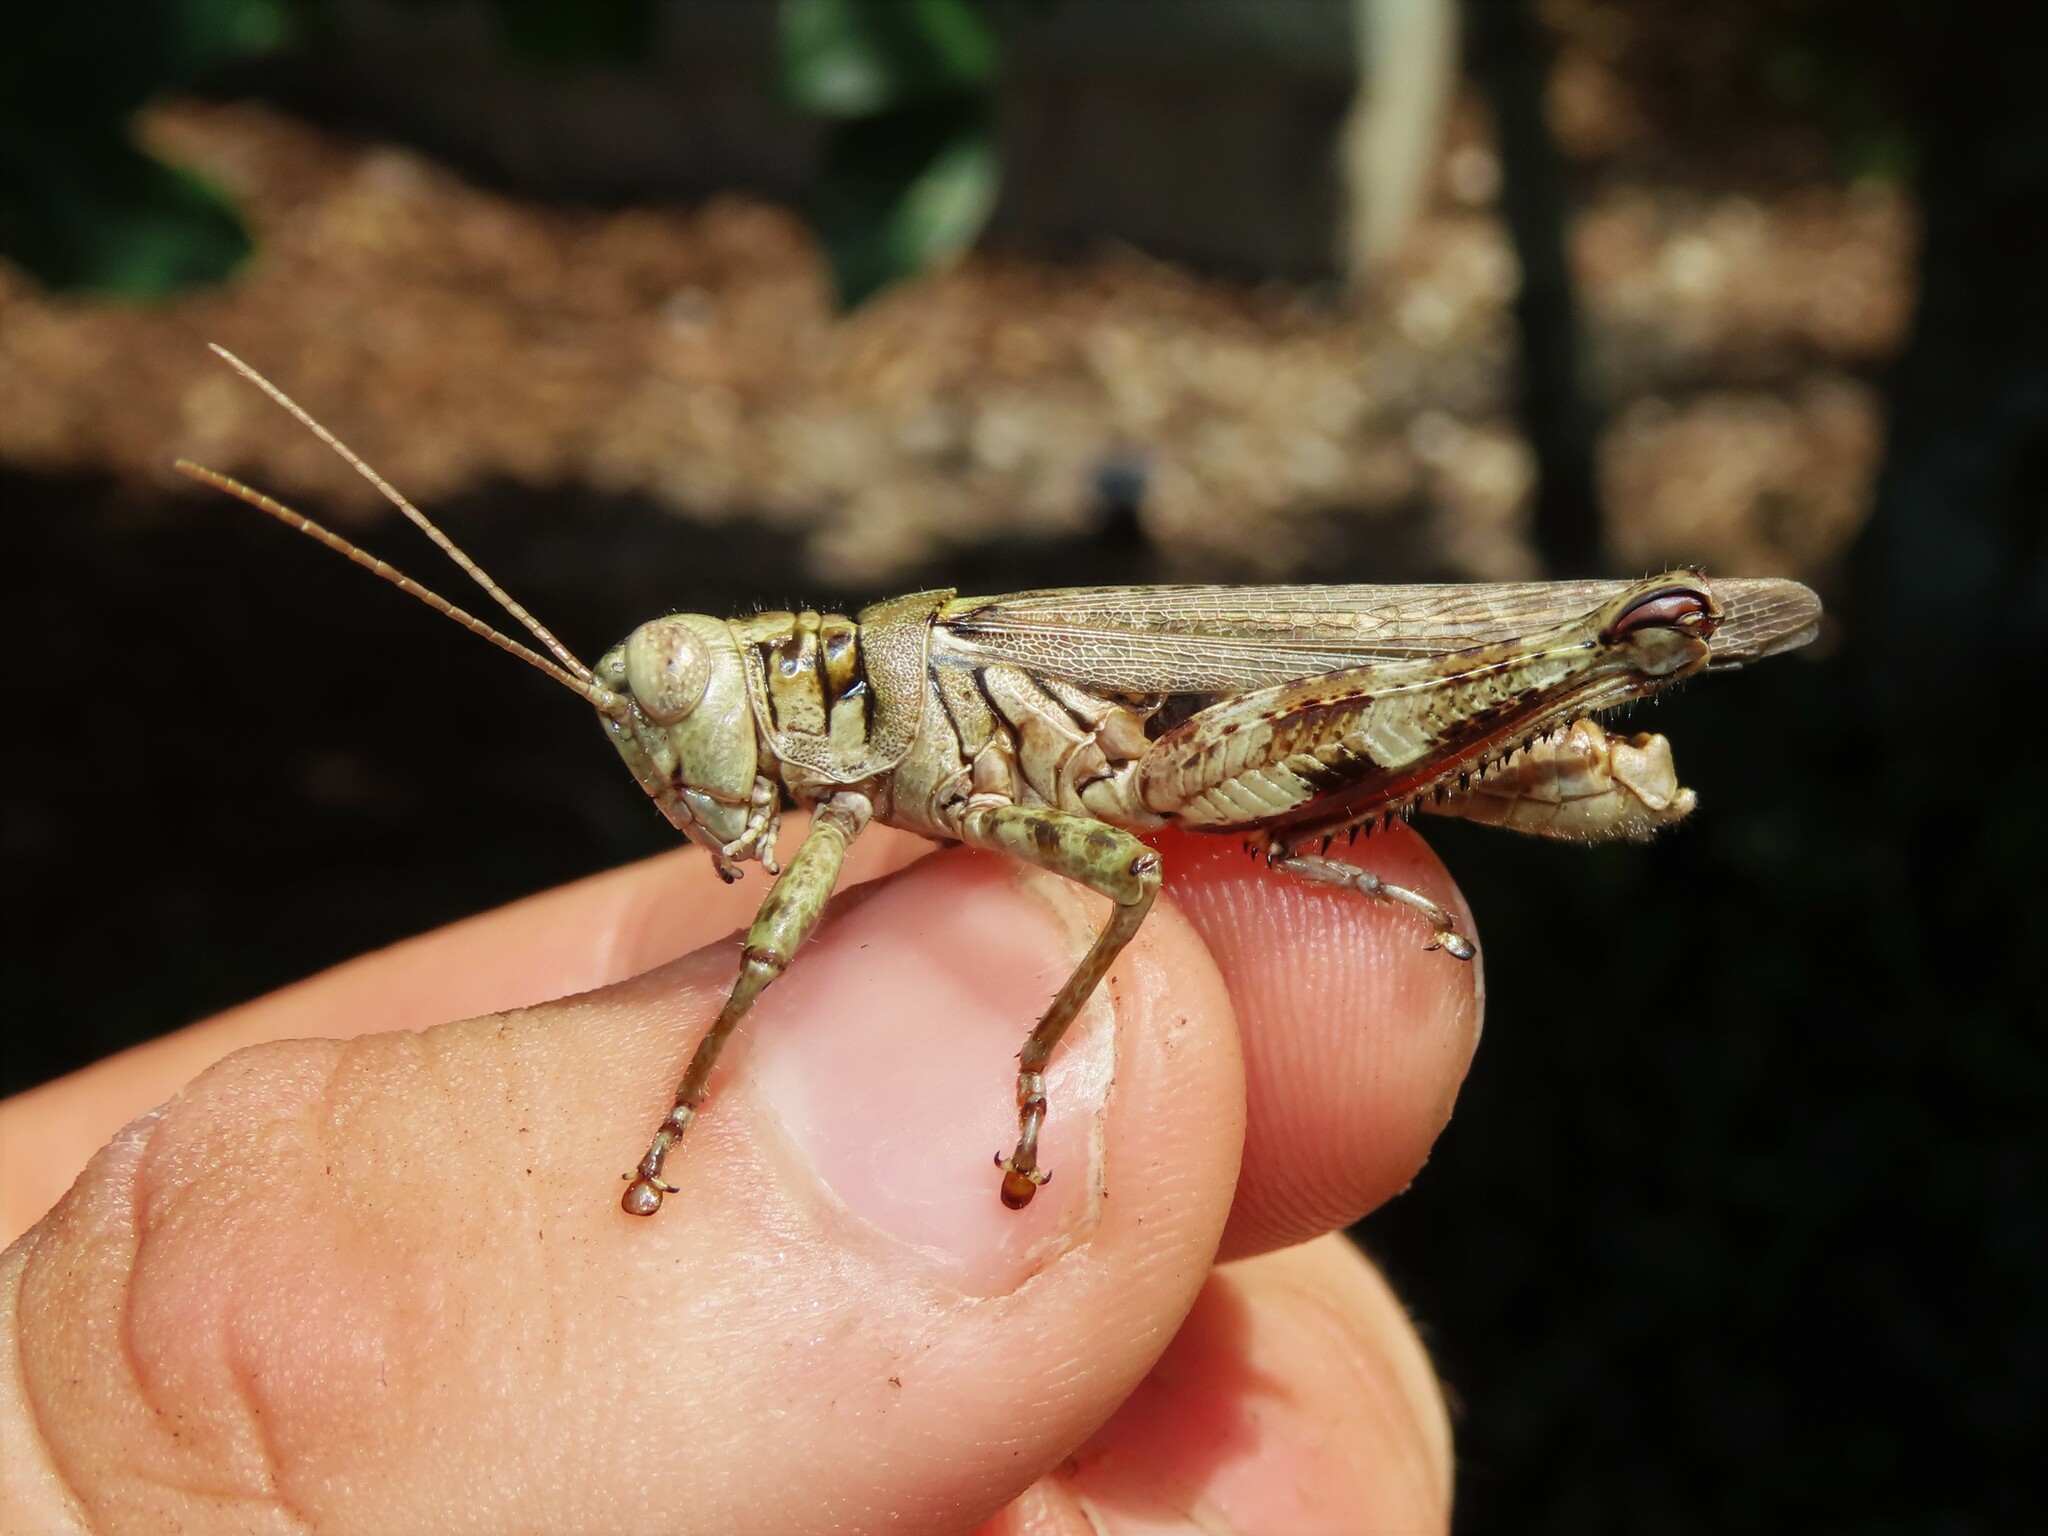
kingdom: Animalia
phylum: Arthropoda
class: Insecta
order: Orthoptera
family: Acrididae
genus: Melanoplus
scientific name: Melanoplus punctulatus
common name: Pine-tree spur-throat grasshopper
